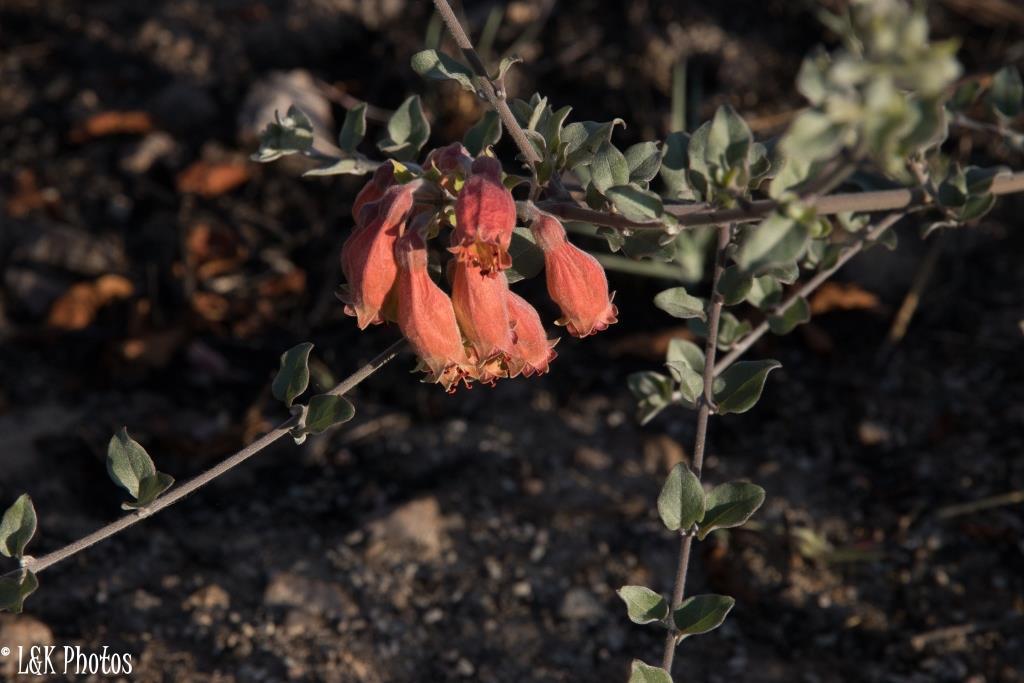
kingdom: Plantae
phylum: Tracheophyta
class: Magnoliopsida
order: Myrtales
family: Combretaceae
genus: Combretum
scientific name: Combretum grandidieri
